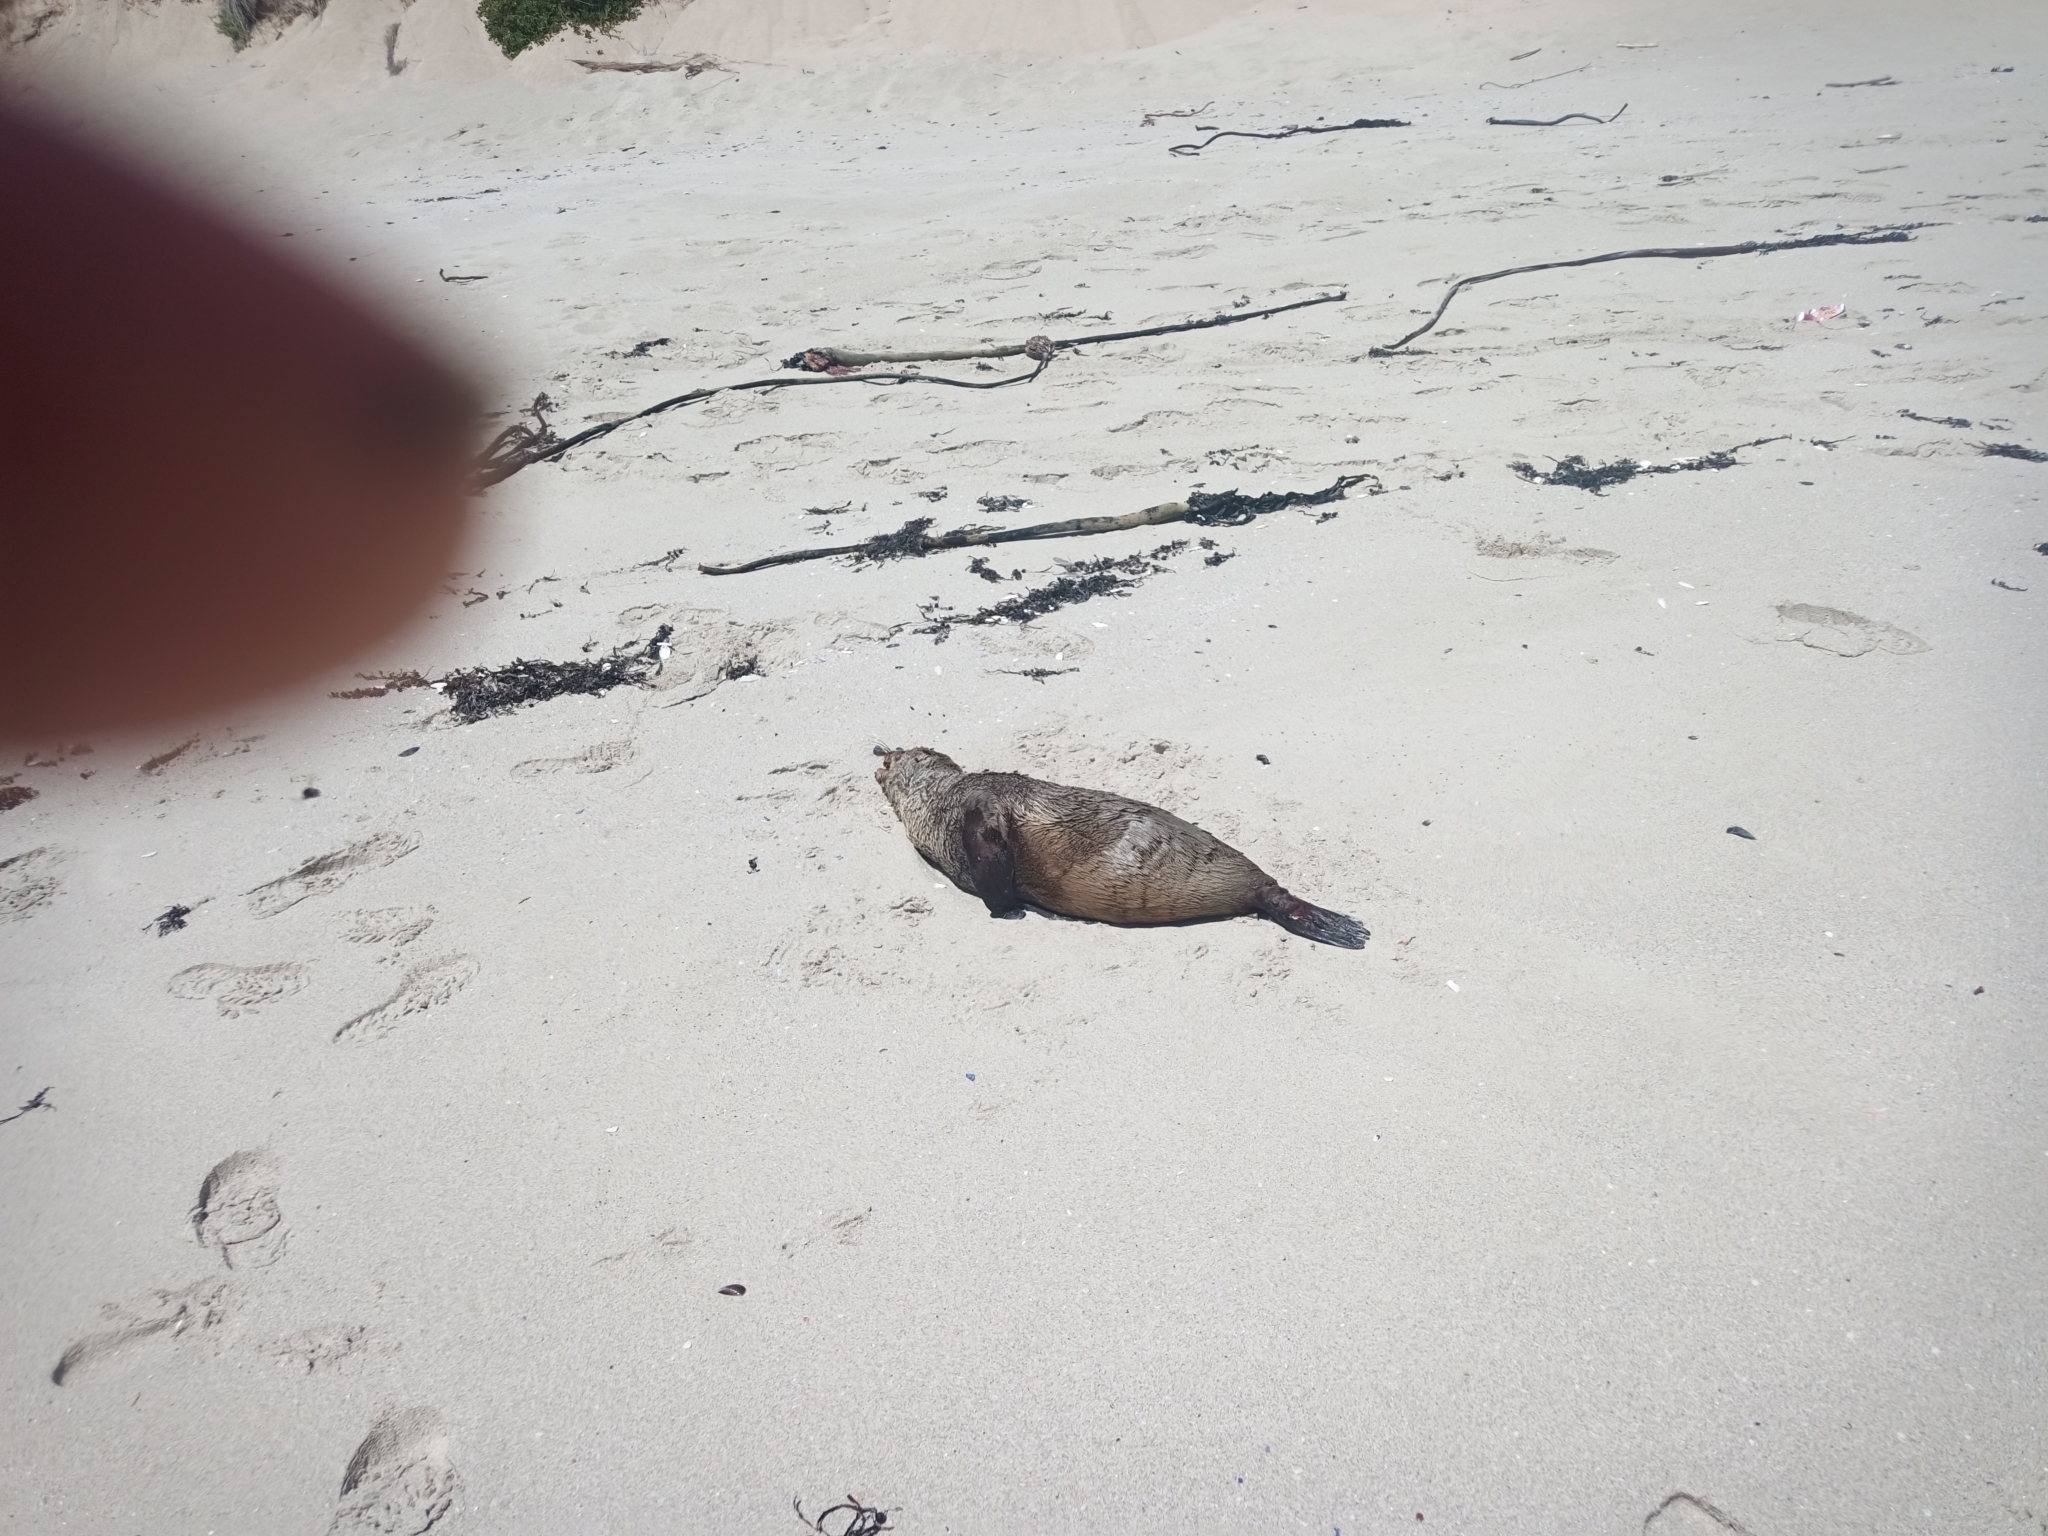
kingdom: Animalia
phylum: Chordata
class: Mammalia
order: Carnivora
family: Otariidae
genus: Arctocephalus
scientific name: Arctocephalus pusillus
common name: Brown fur seal
